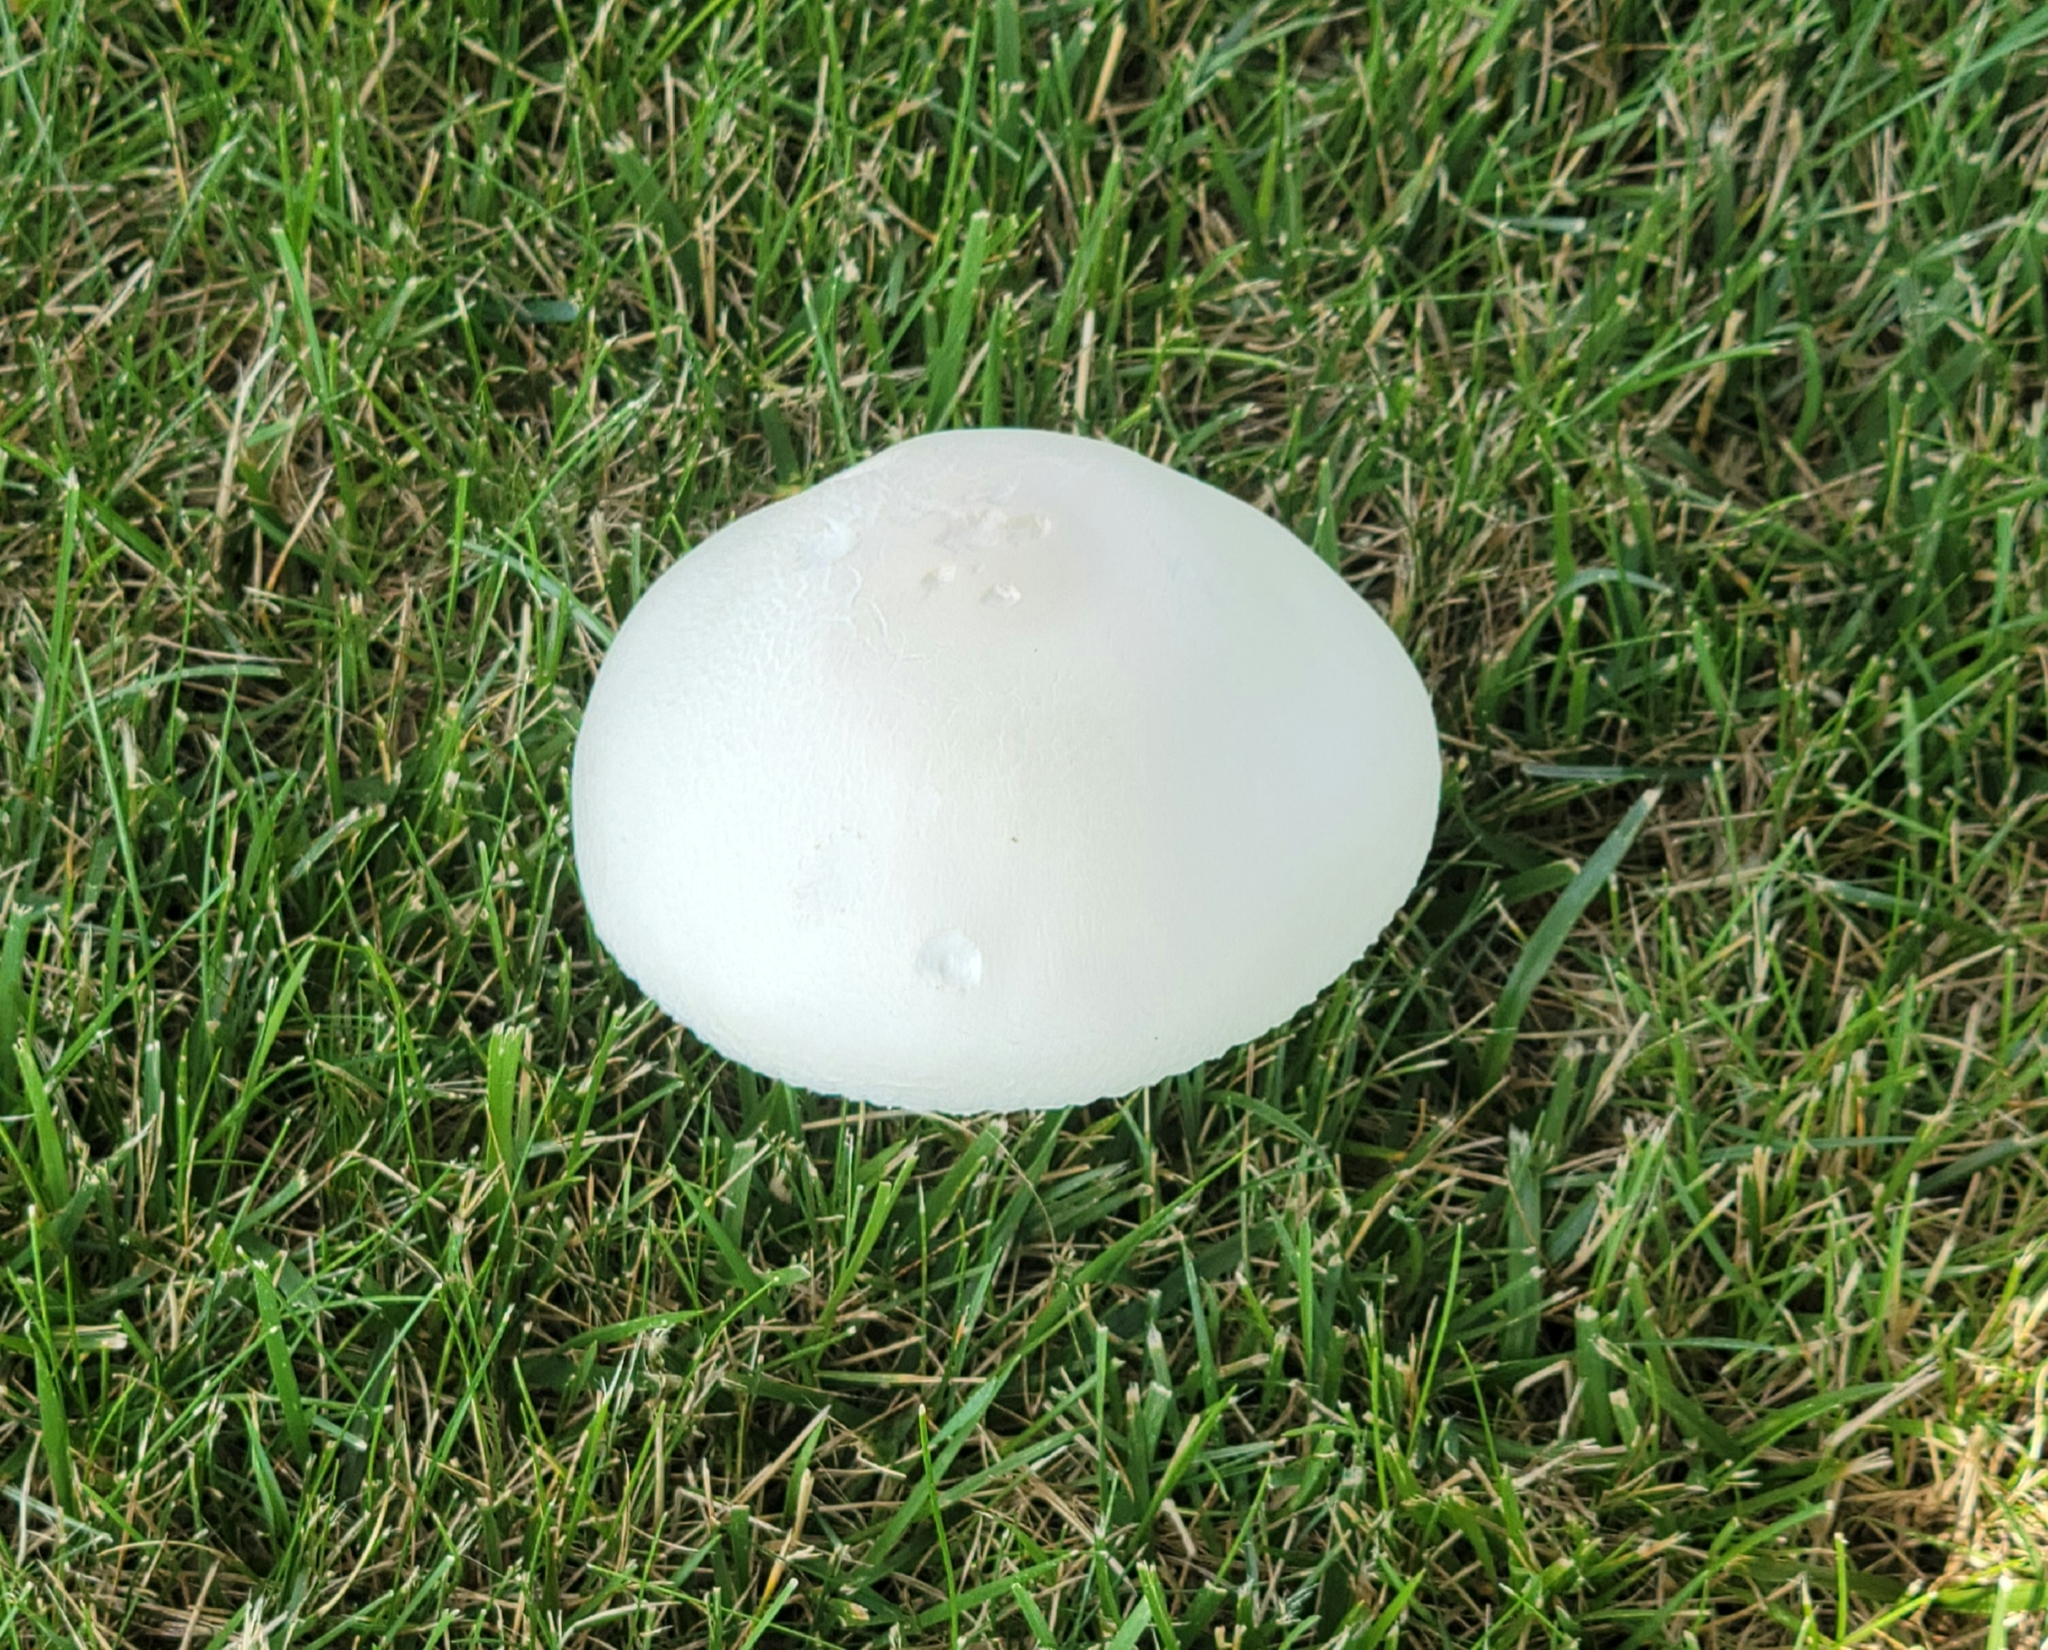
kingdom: Fungi
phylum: Basidiomycota
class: Agaricomycetes
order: Agaricales
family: Agaricaceae
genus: Agaricus
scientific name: Agaricus campestris
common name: Field mushroom
